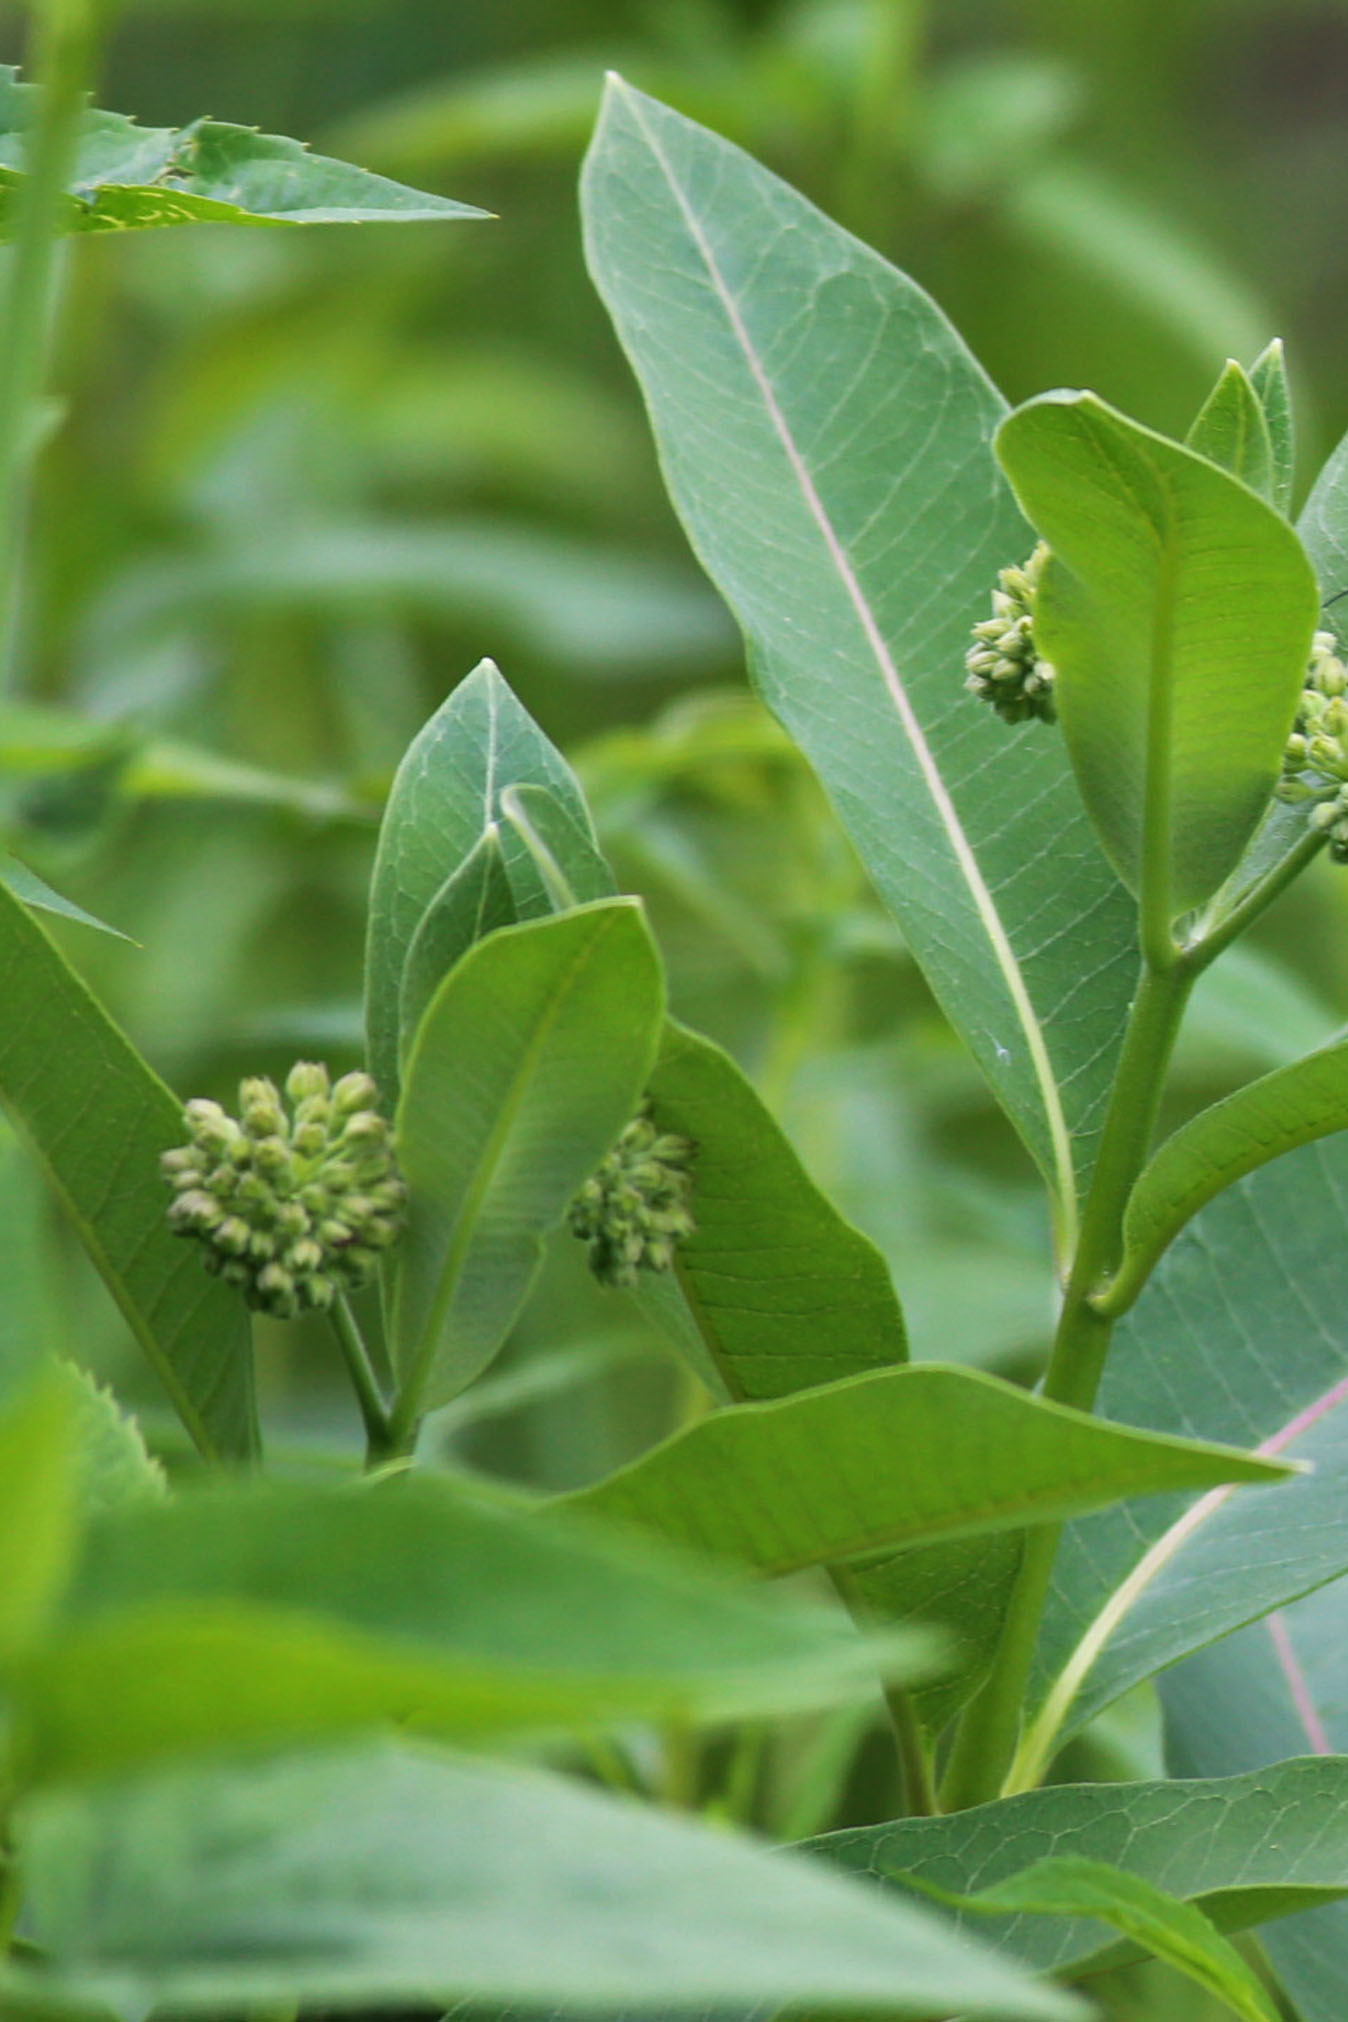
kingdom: Plantae
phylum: Tracheophyta
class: Magnoliopsida
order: Gentianales
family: Apocynaceae
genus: Asclepias
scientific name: Asclepias syriaca
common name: Common milkweed
